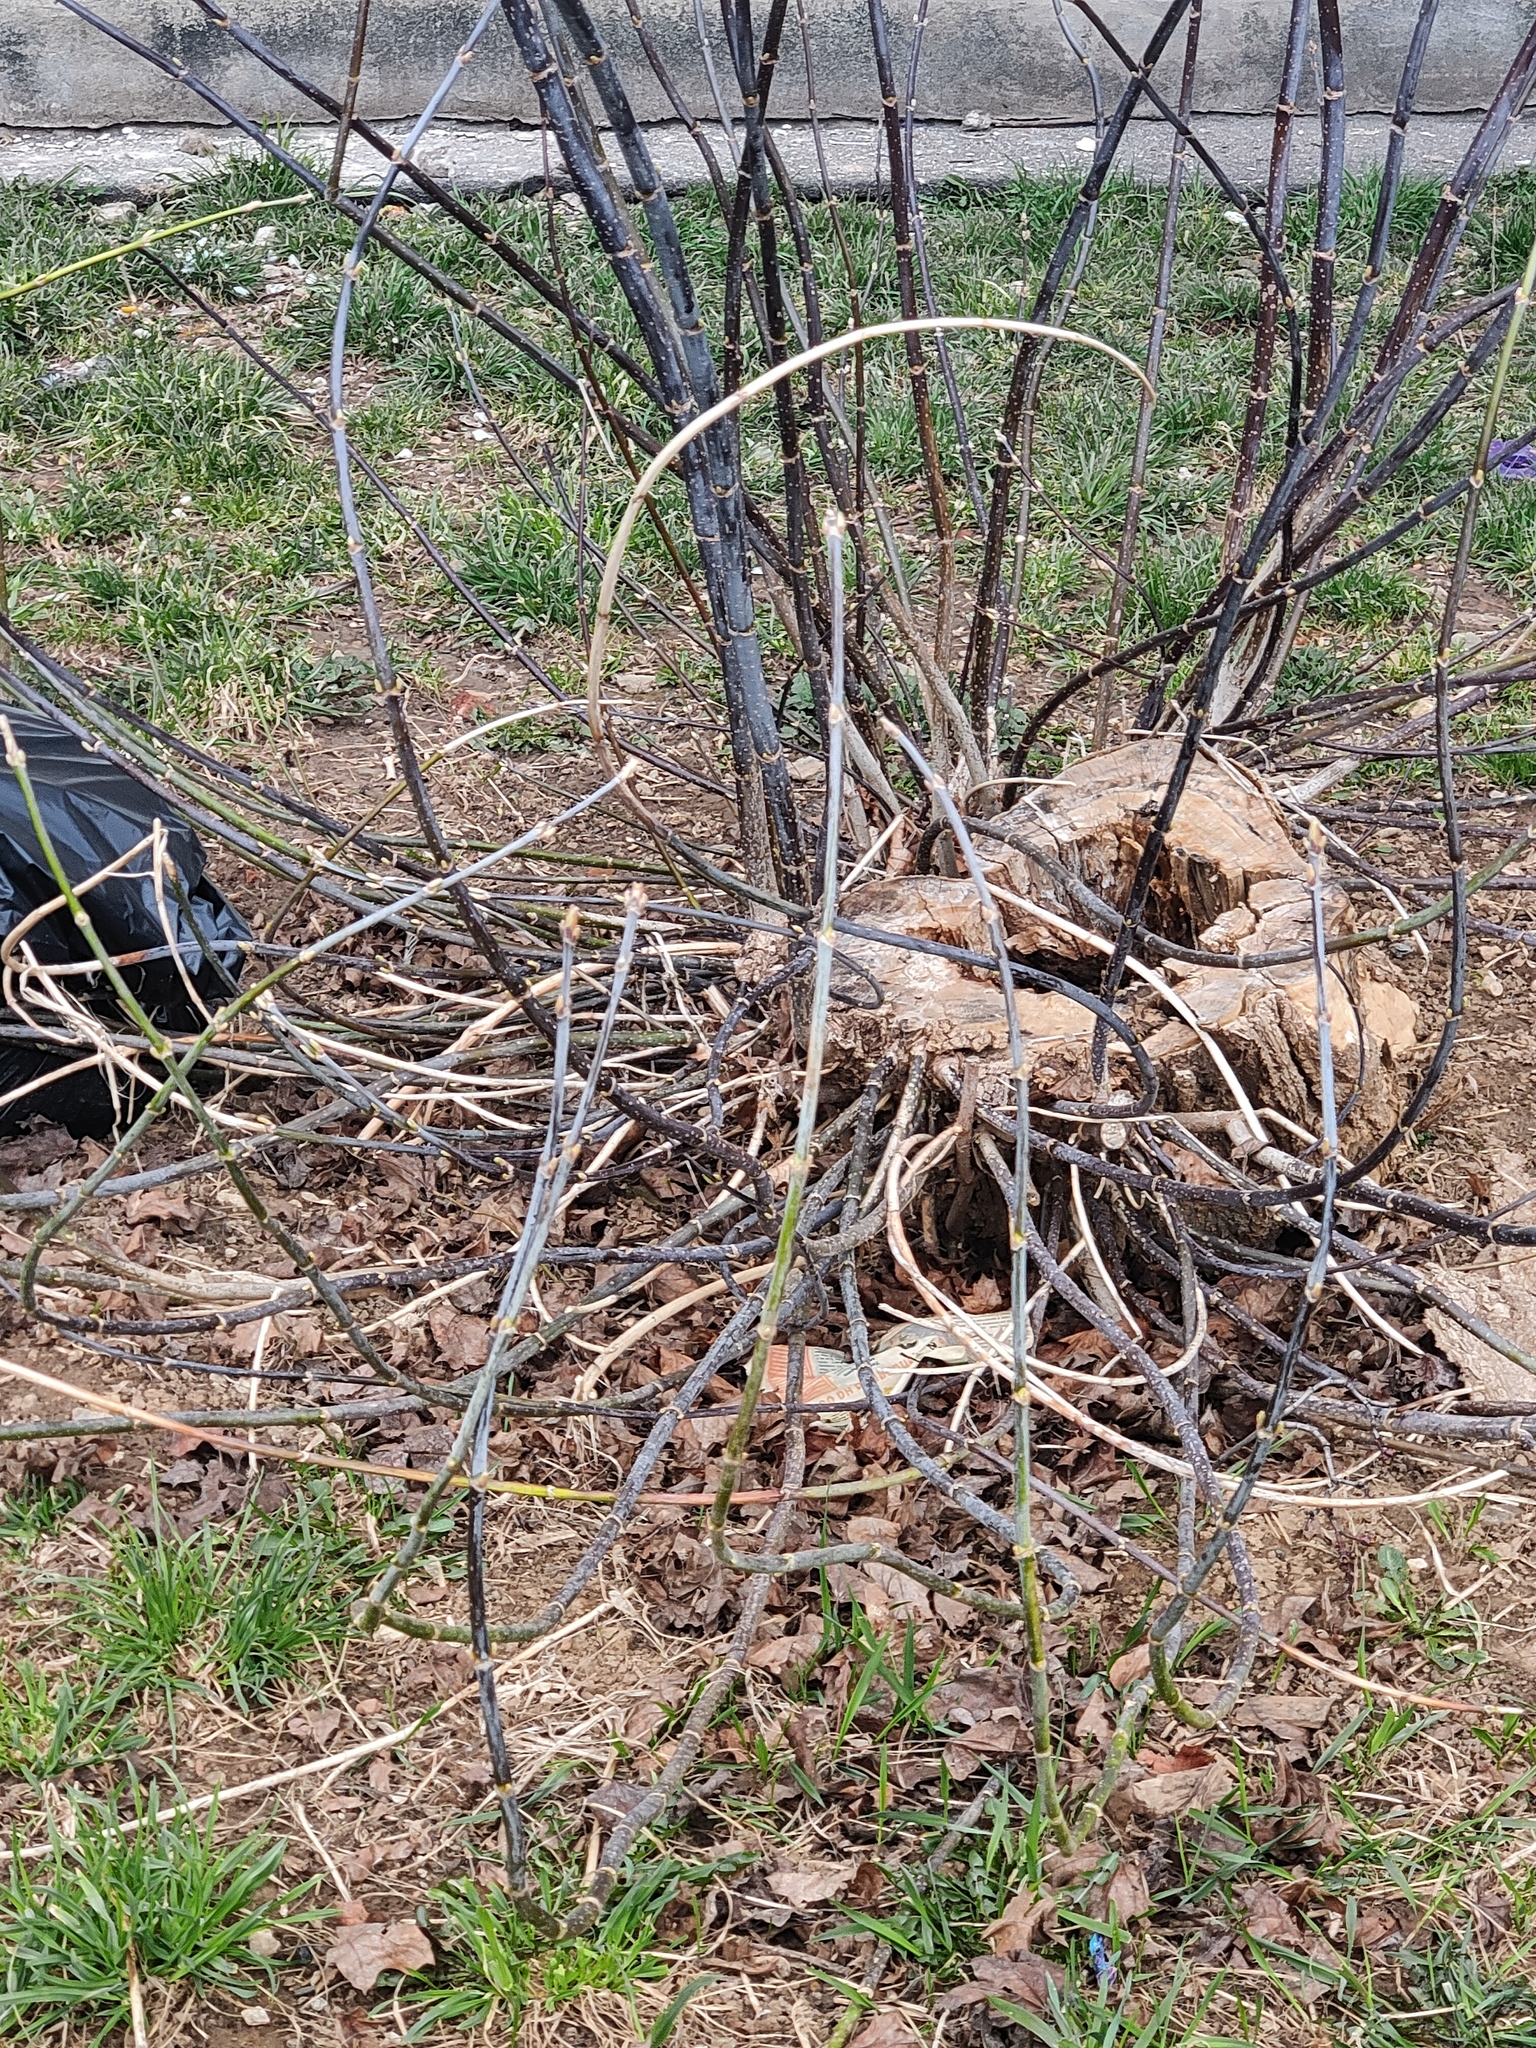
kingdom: Plantae
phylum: Tracheophyta
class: Magnoliopsida
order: Sapindales
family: Sapindaceae
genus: Acer
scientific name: Acer negundo
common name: Ashleaf maple
